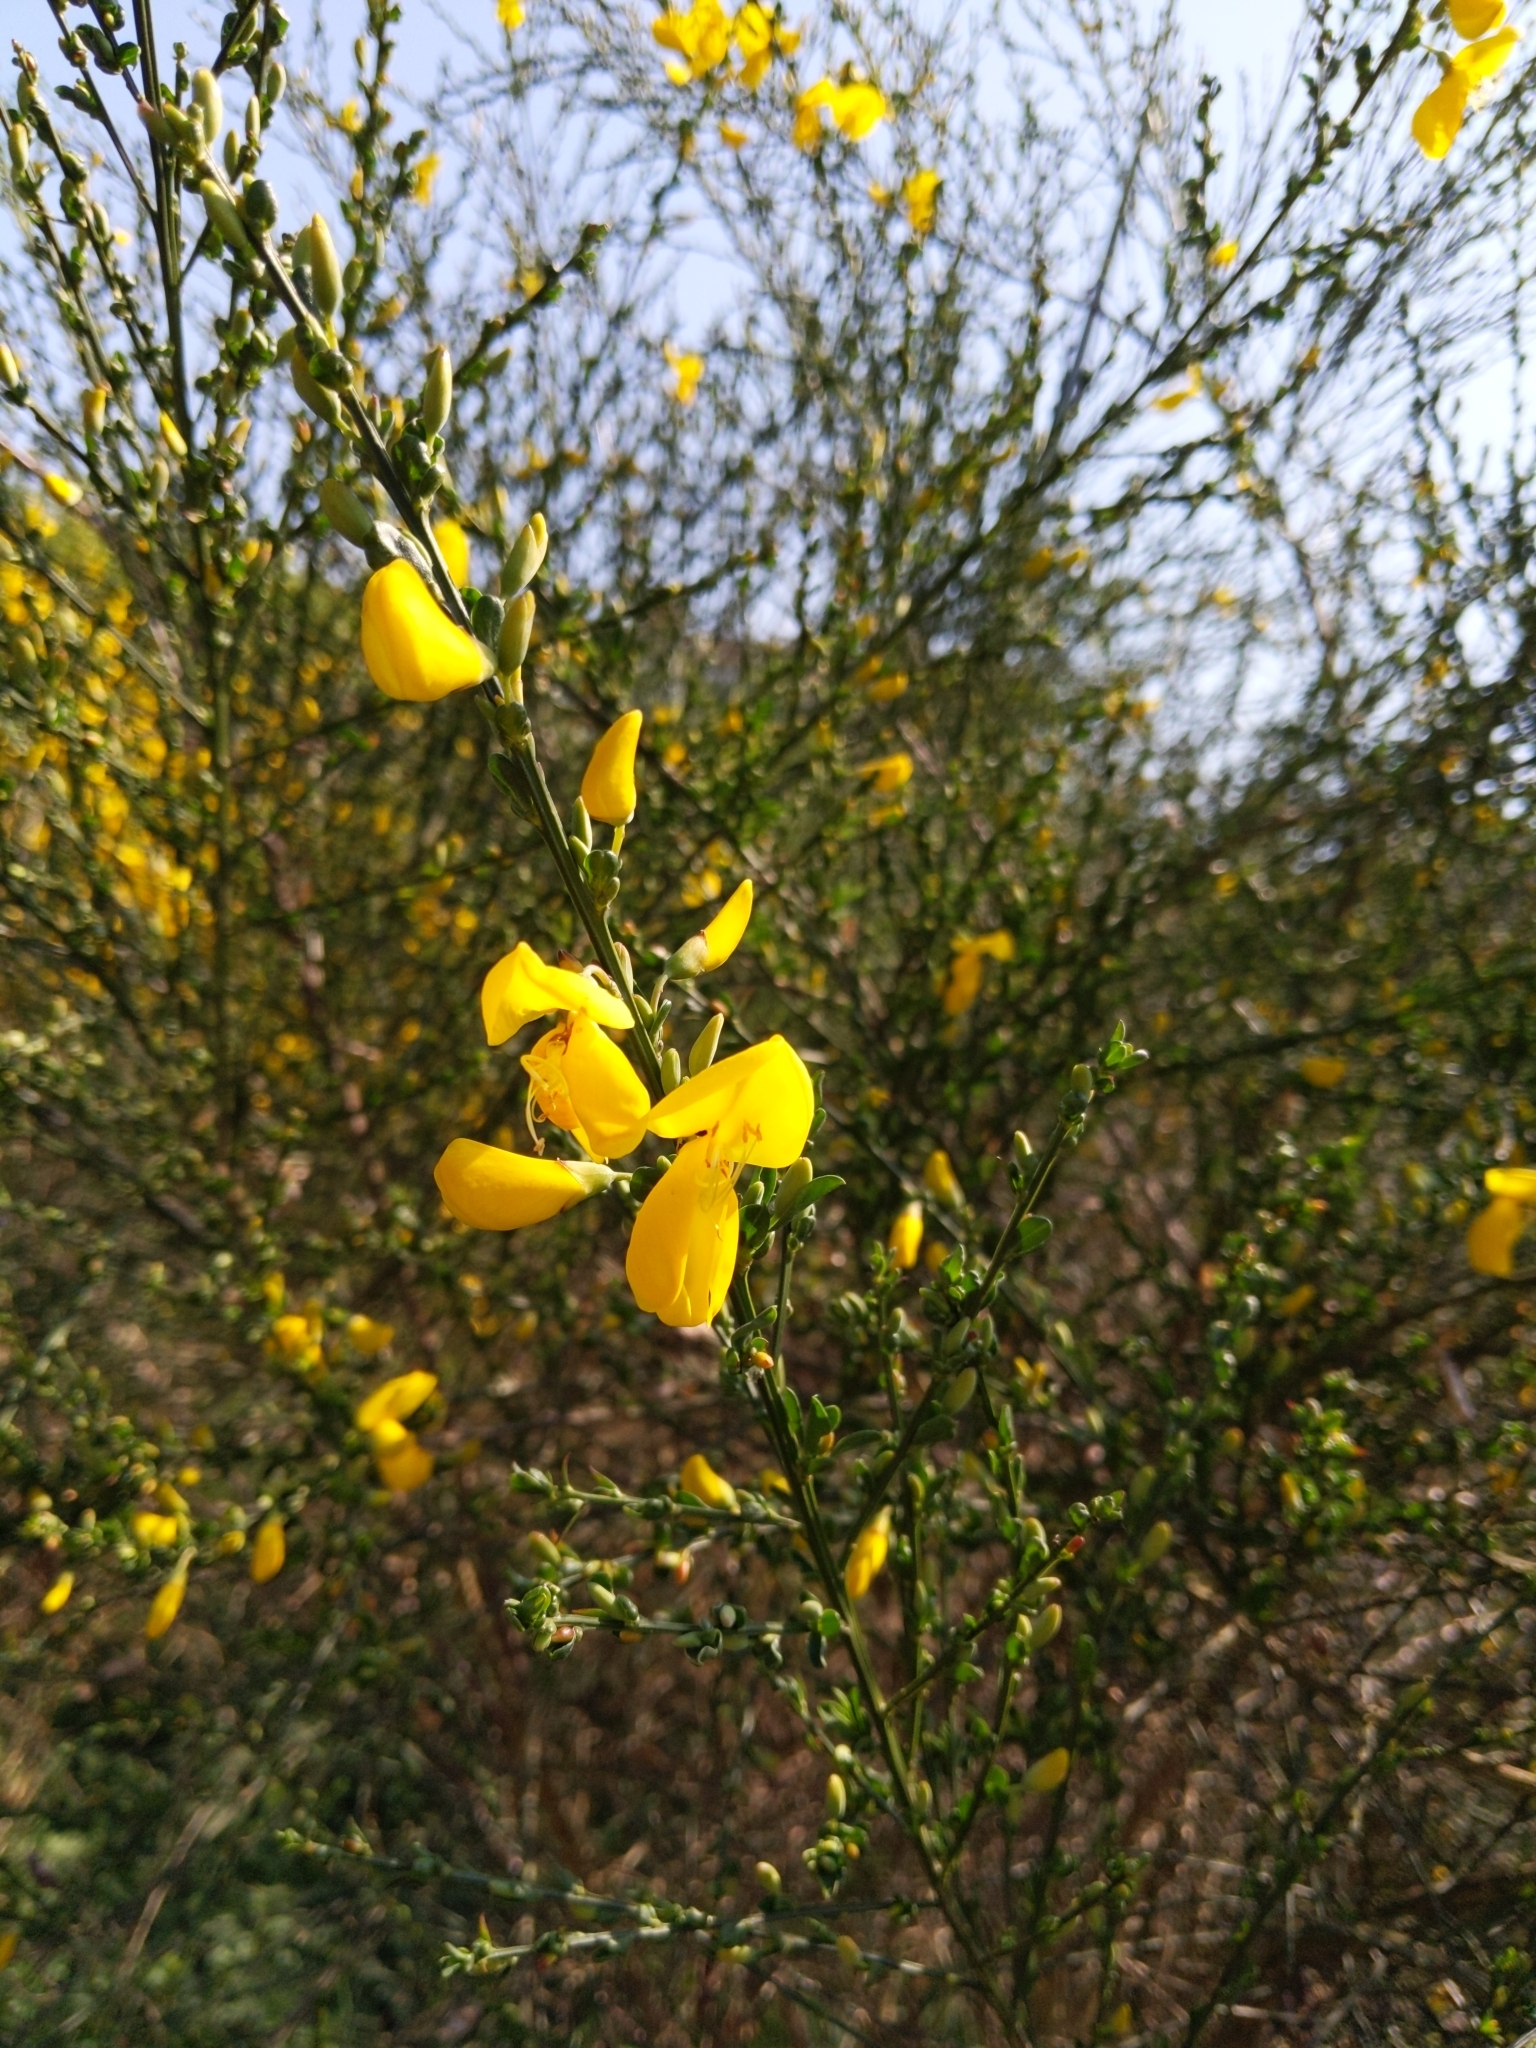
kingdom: Plantae
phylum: Tracheophyta
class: Magnoliopsida
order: Fabales
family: Fabaceae
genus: Cytisus
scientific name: Cytisus scoparius
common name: Scotch broom
